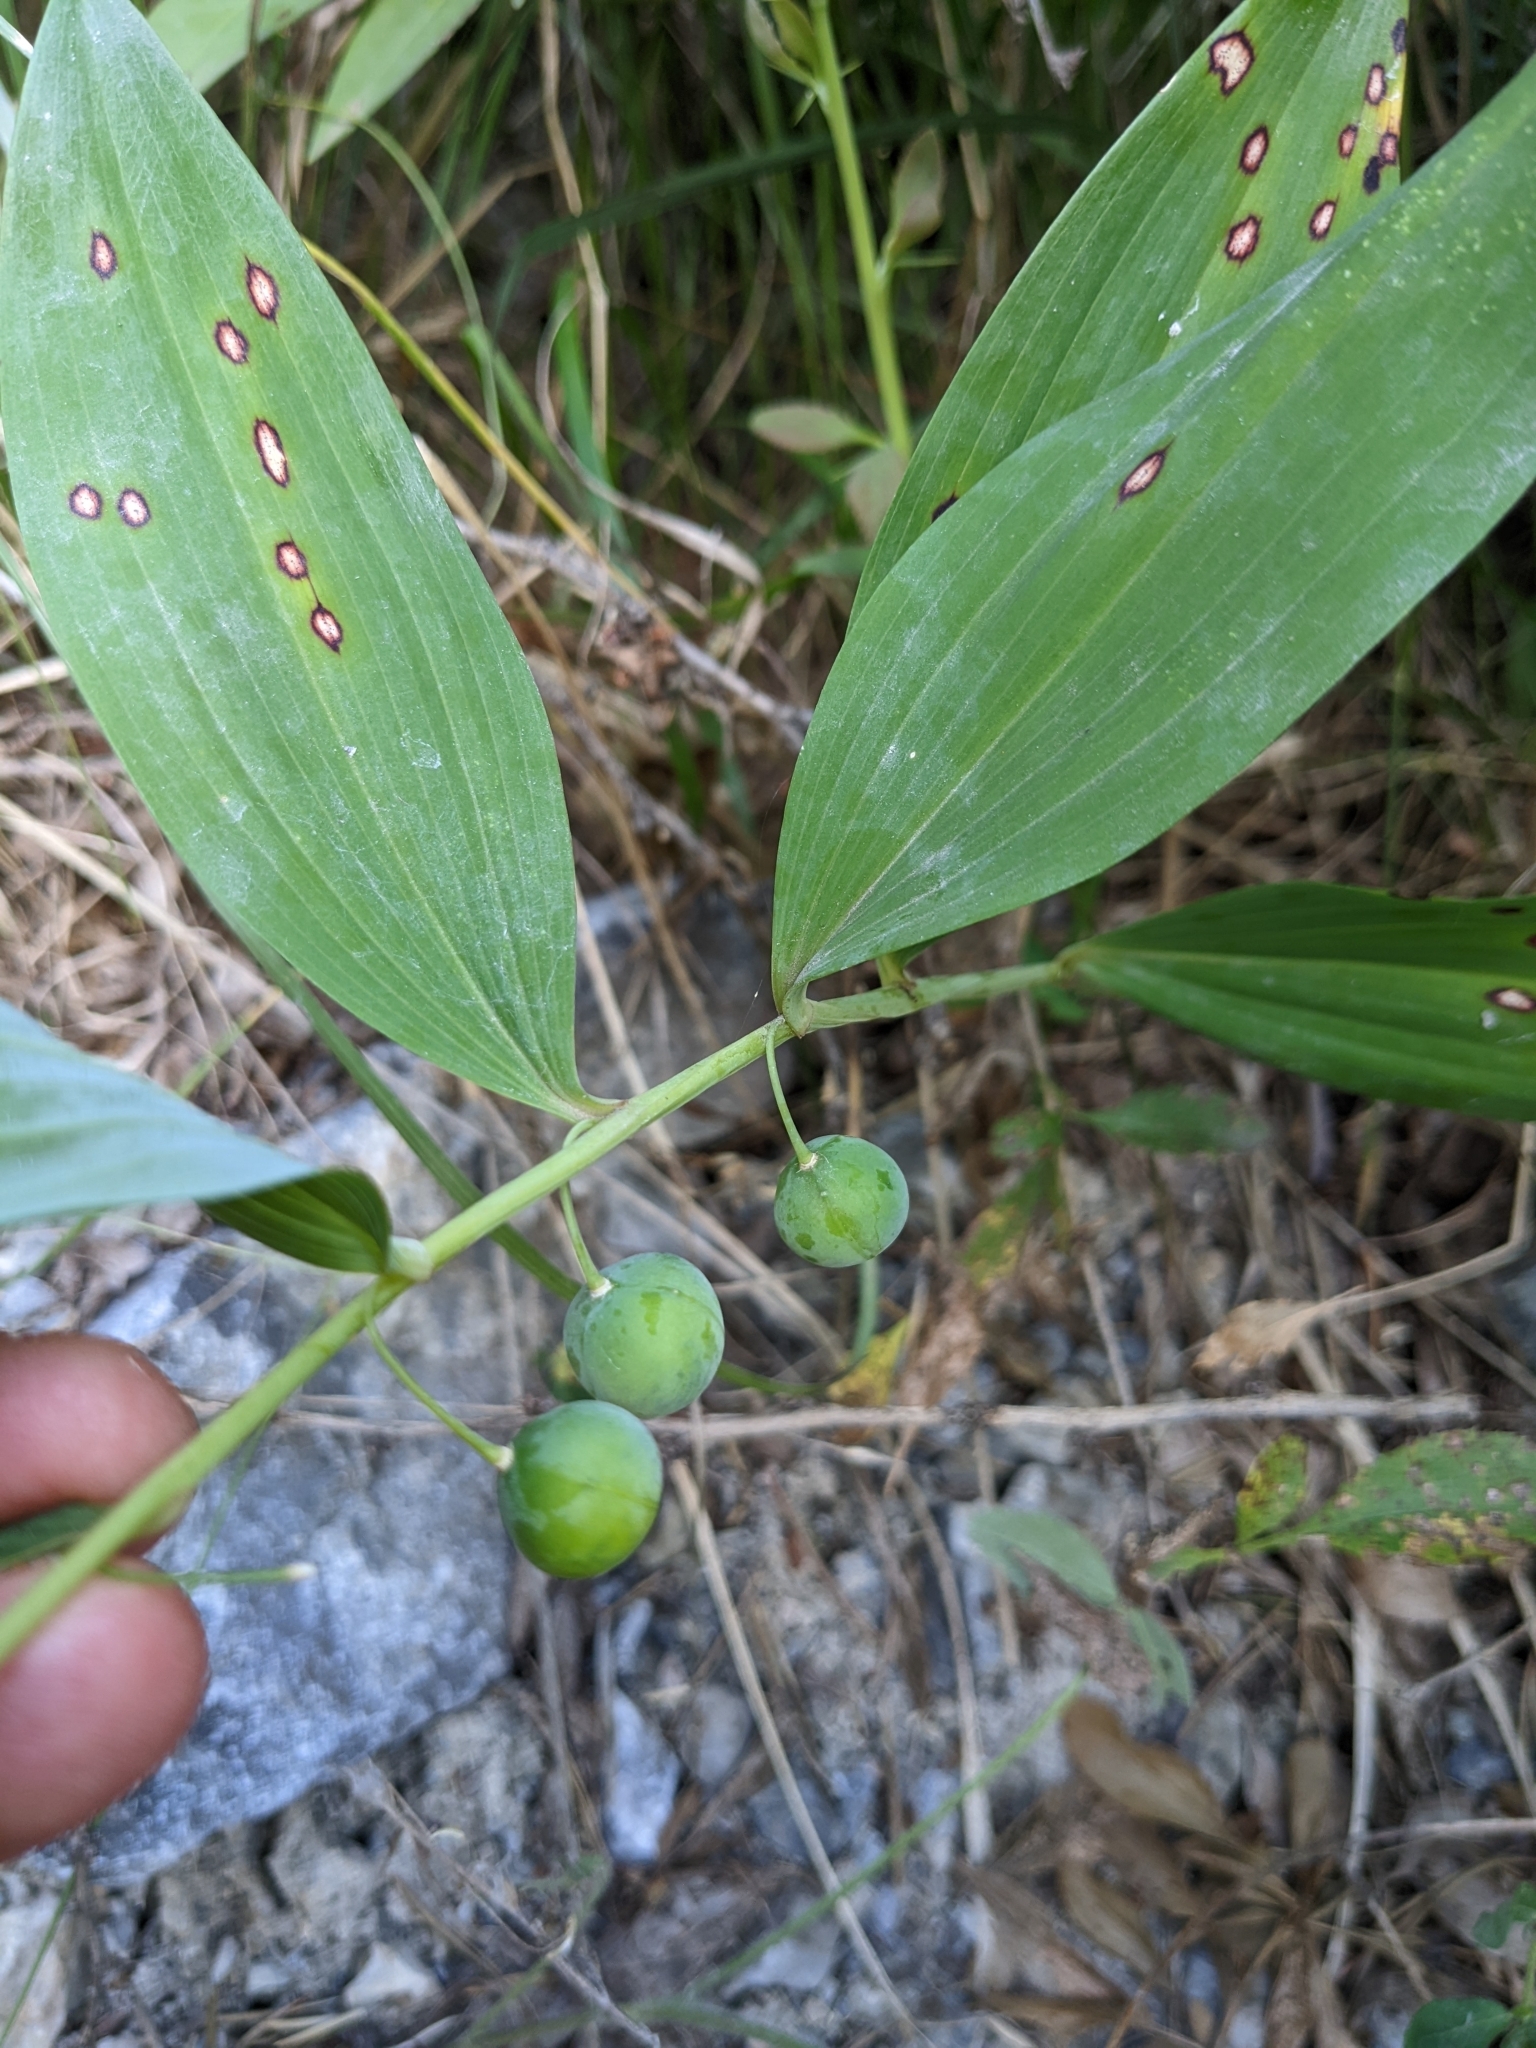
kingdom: Plantae
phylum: Tracheophyta
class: Liliopsida
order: Asparagales
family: Asparagaceae
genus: Polygonatum
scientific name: Polygonatum odoratum
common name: Angular solomon's-seal
